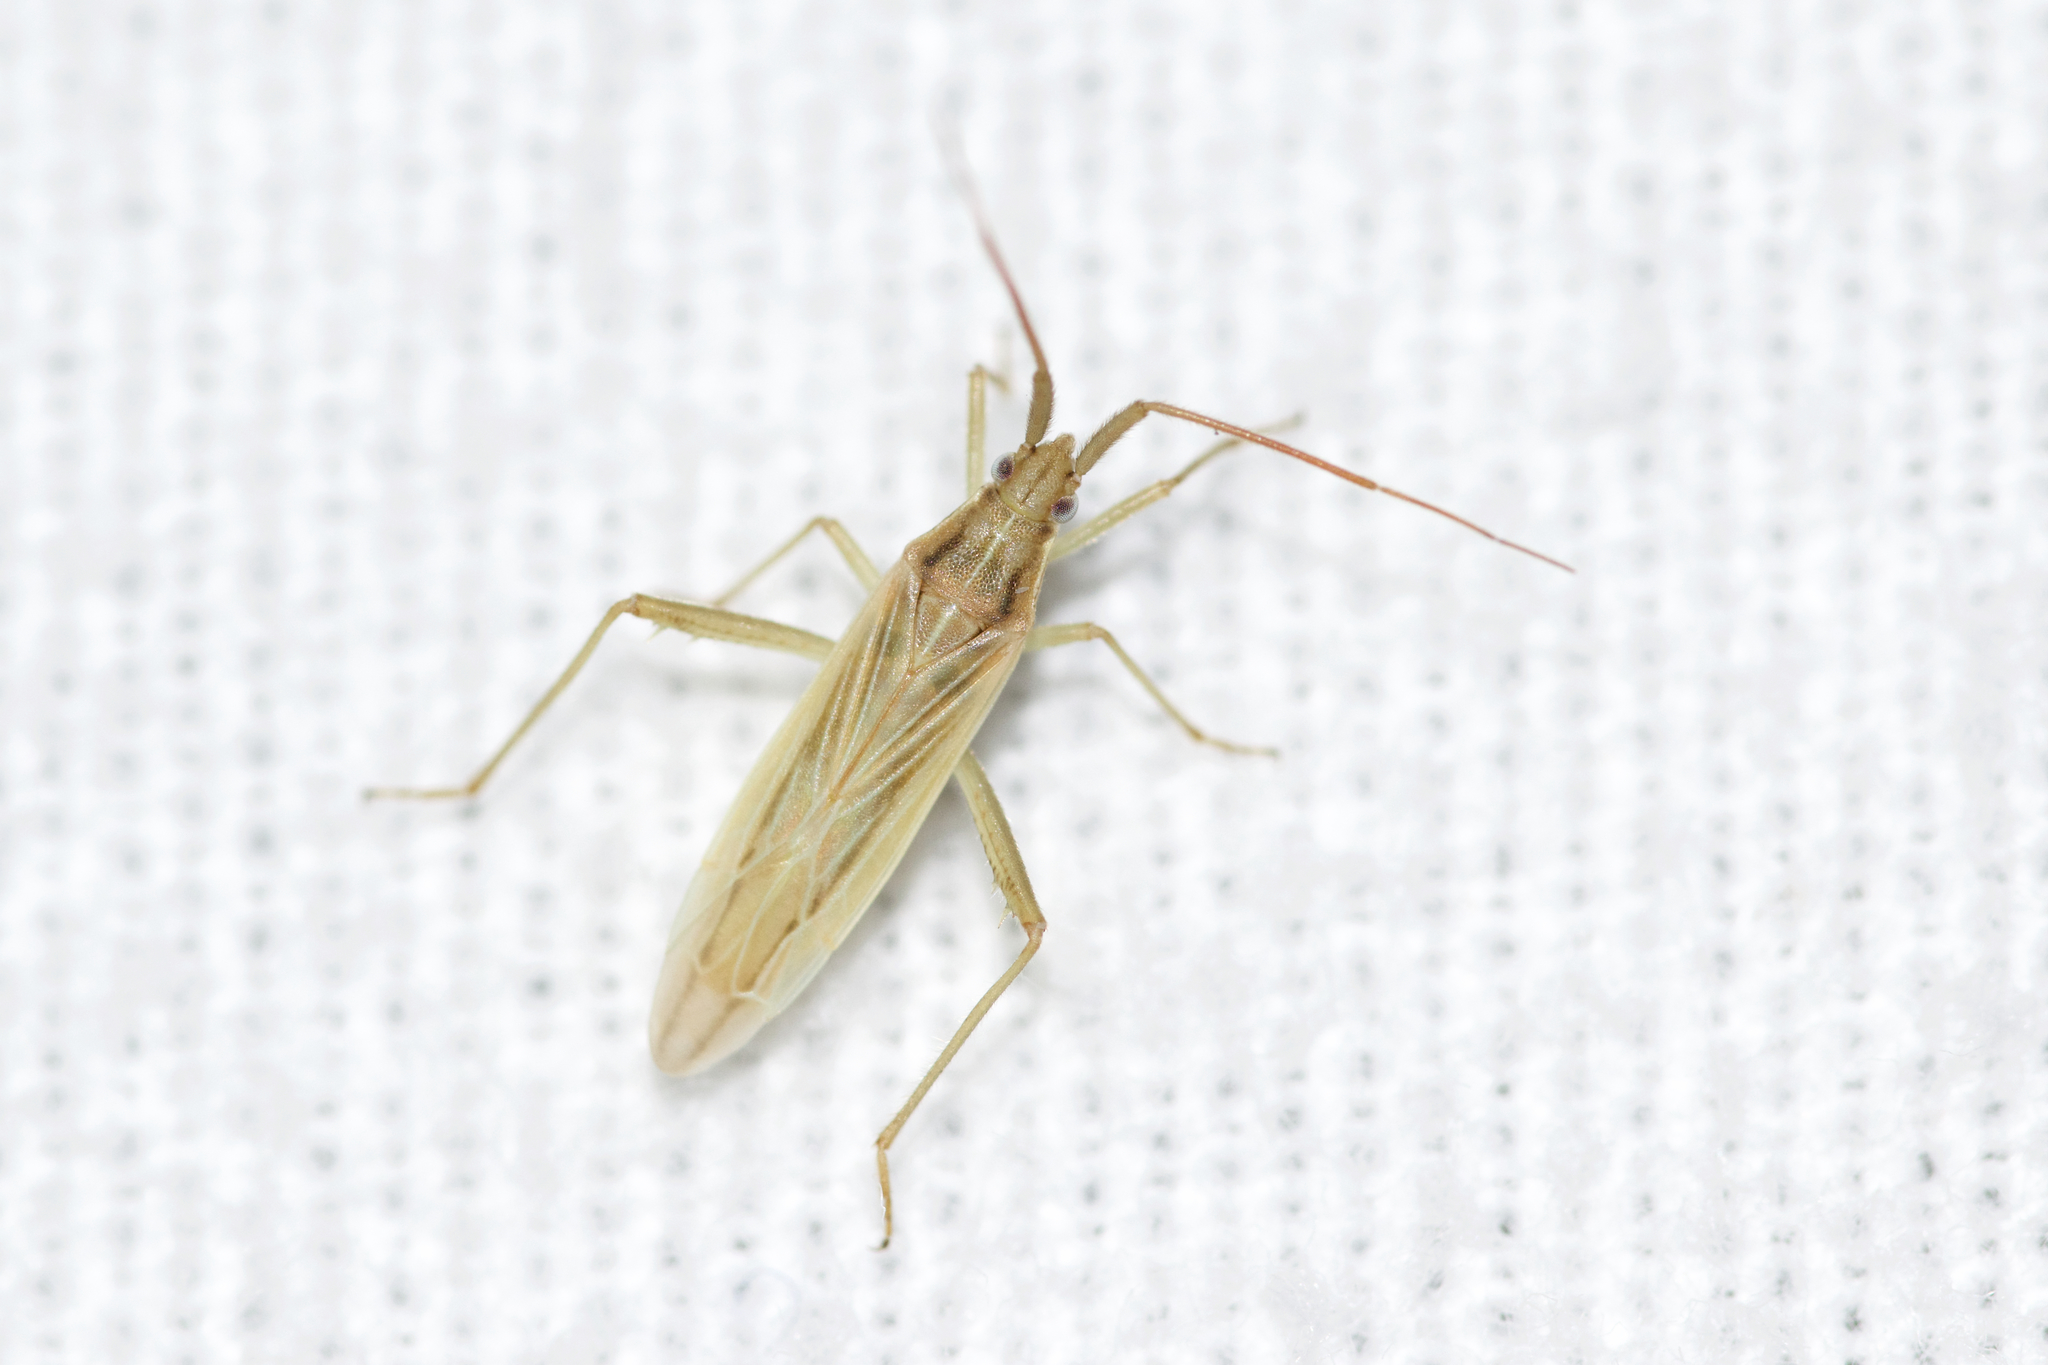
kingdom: Animalia
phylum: Arthropoda
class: Insecta
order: Hemiptera
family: Miridae
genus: Stenodema
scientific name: Stenodema trispinosa
